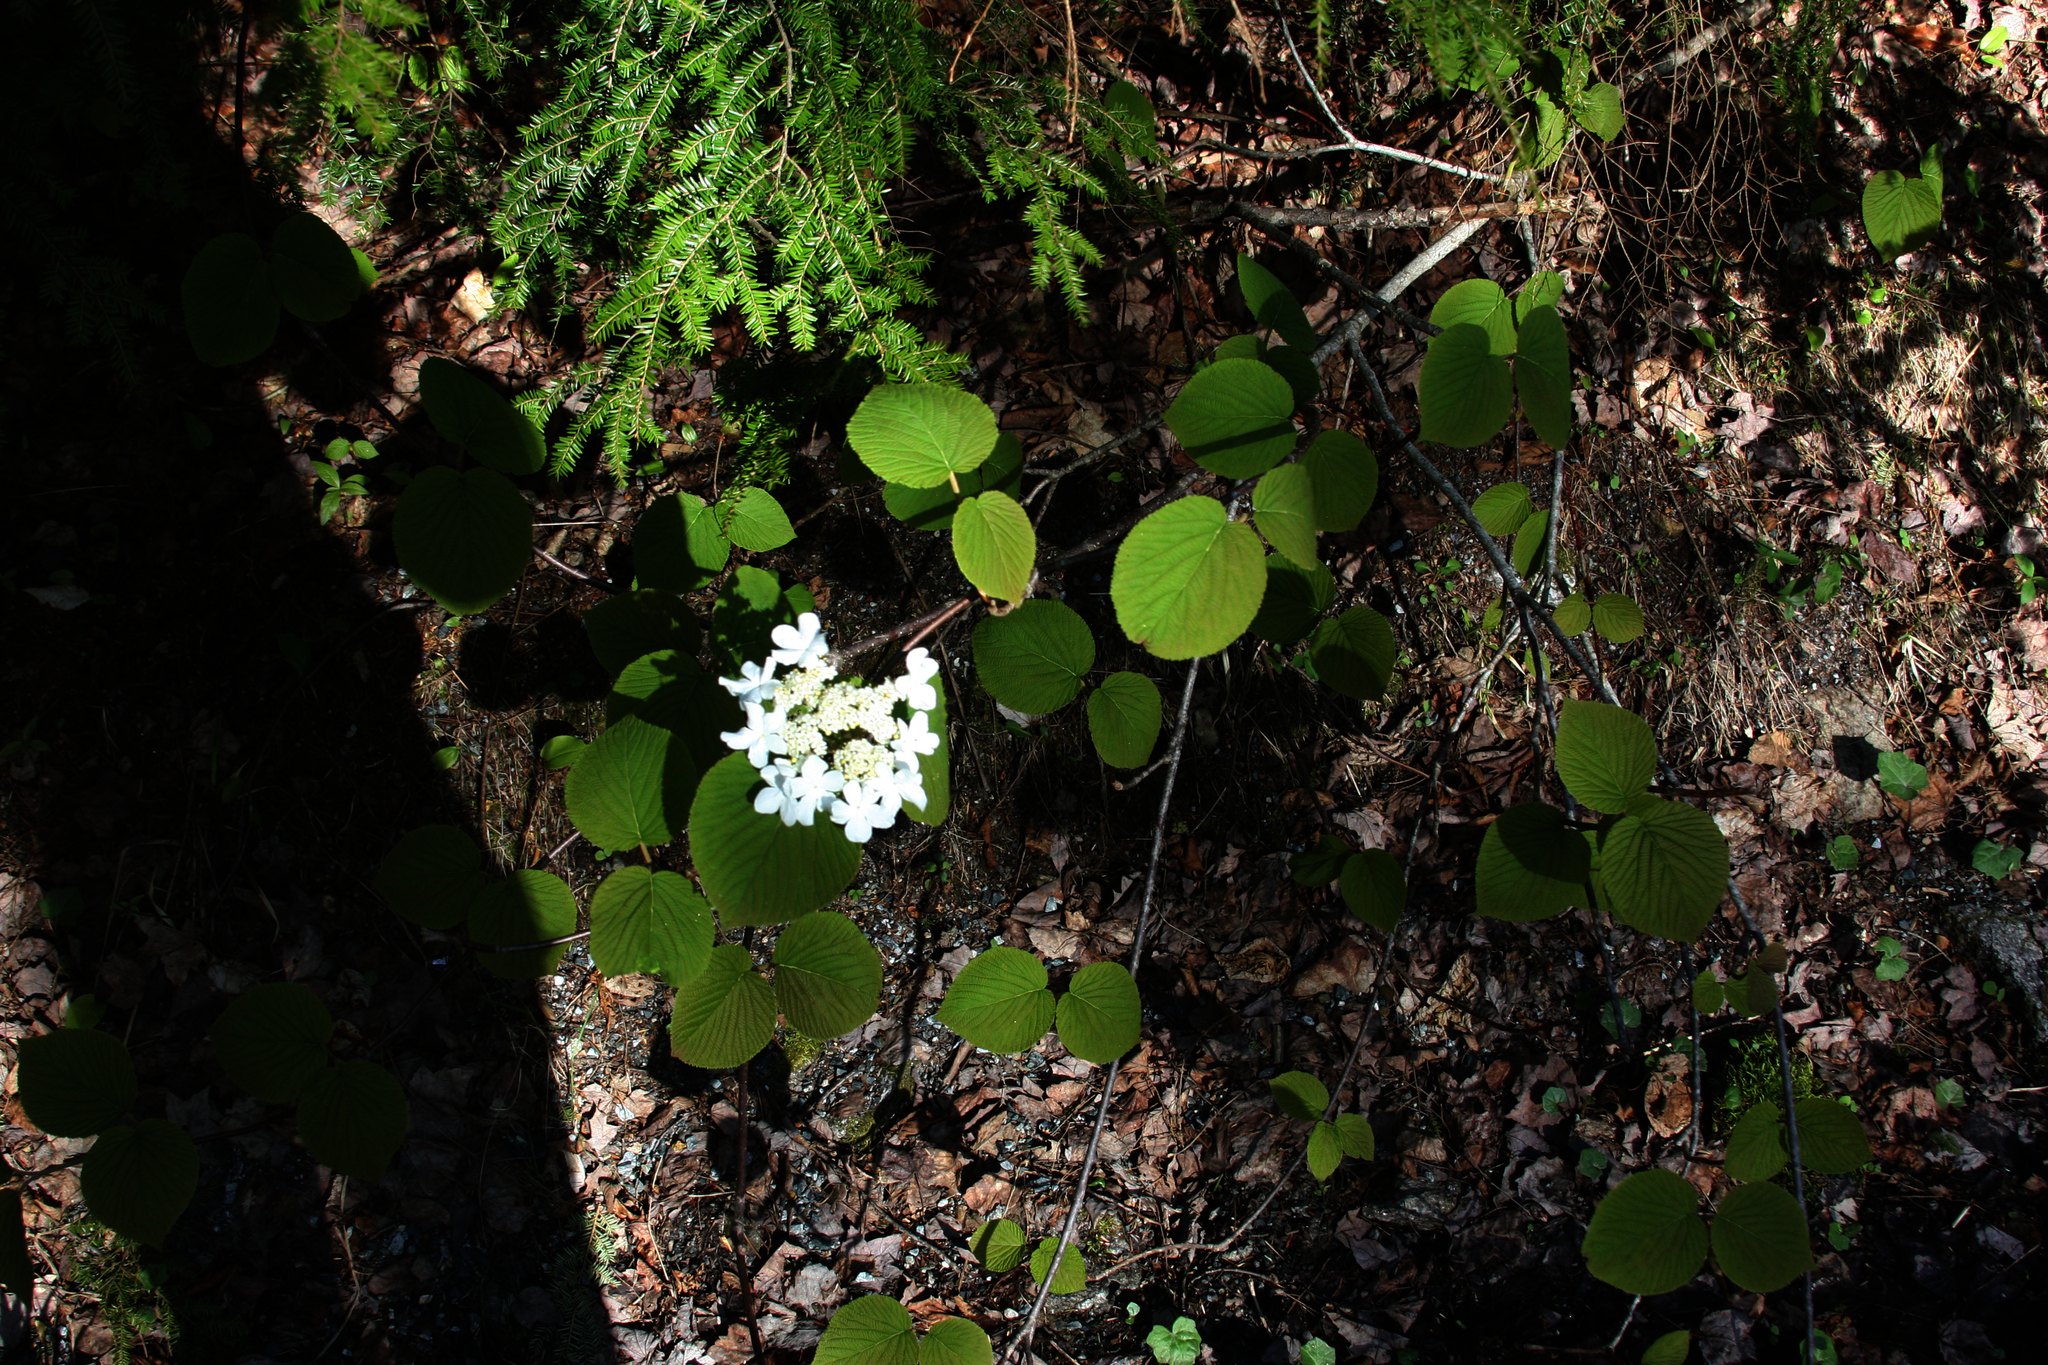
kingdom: Plantae
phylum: Tracheophyta
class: Magnoliopsida
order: Dipsacales
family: Viburnaceae
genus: Viburnum
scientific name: Viburnum lantanoides
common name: Hobblebush
